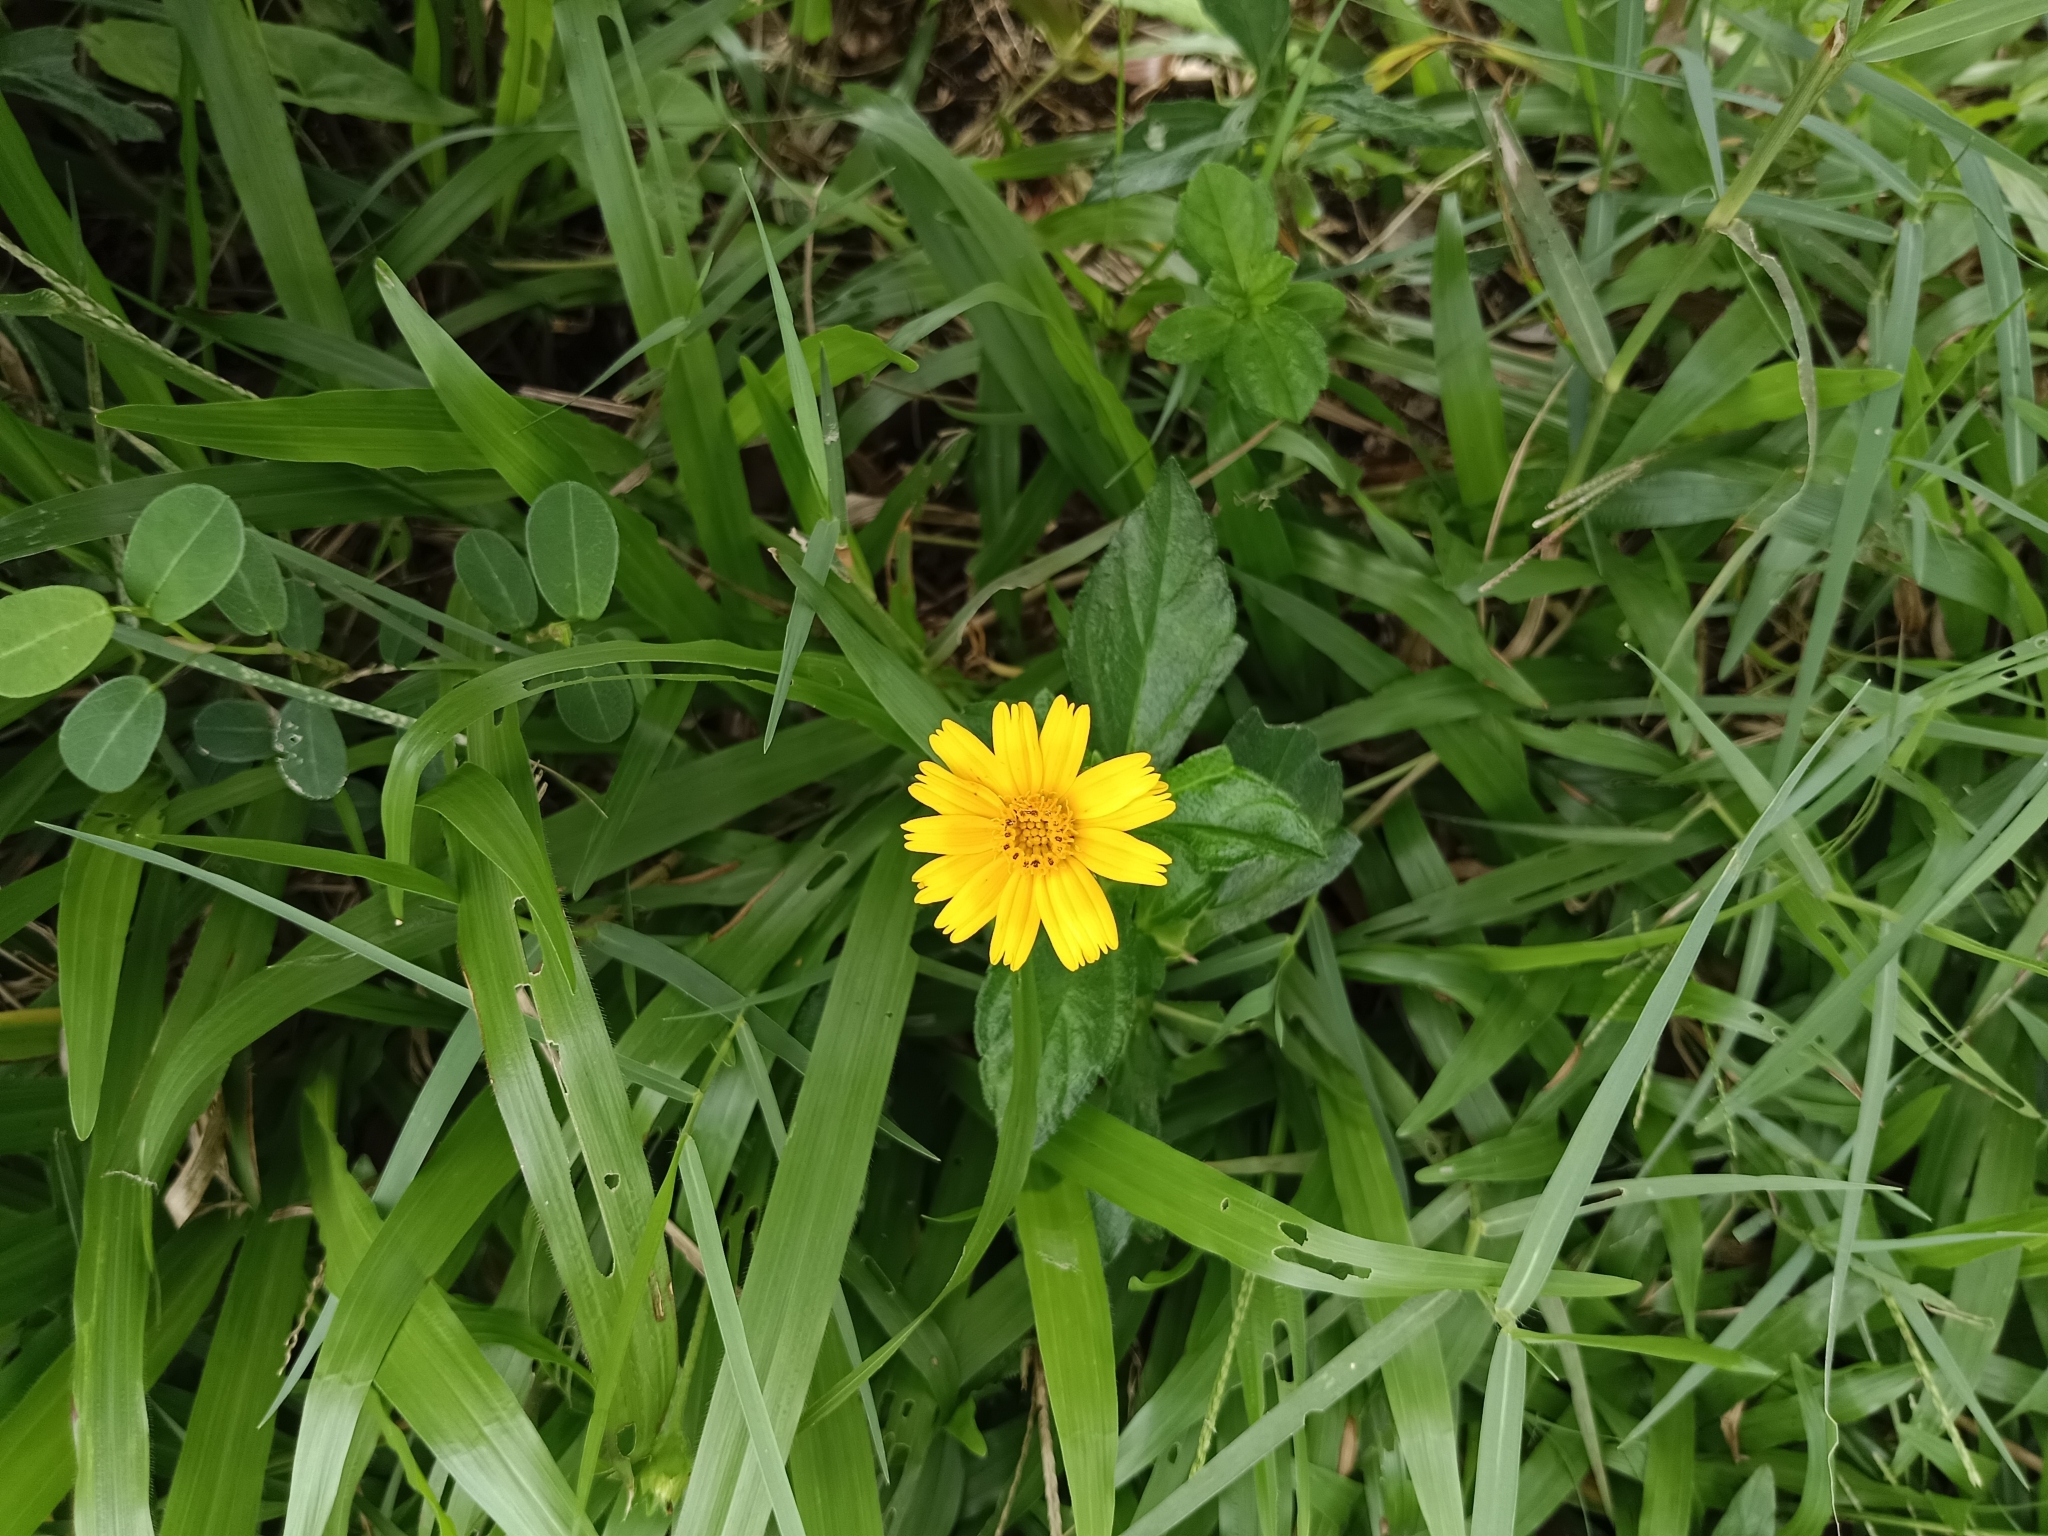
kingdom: Plantae
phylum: Tracheophyta
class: Magnoliopsida
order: Asterales
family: Asteraceae
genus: Sphagneticola
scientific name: Sphagneticola trilobata
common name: Bay biscayne creeping-oxeye
